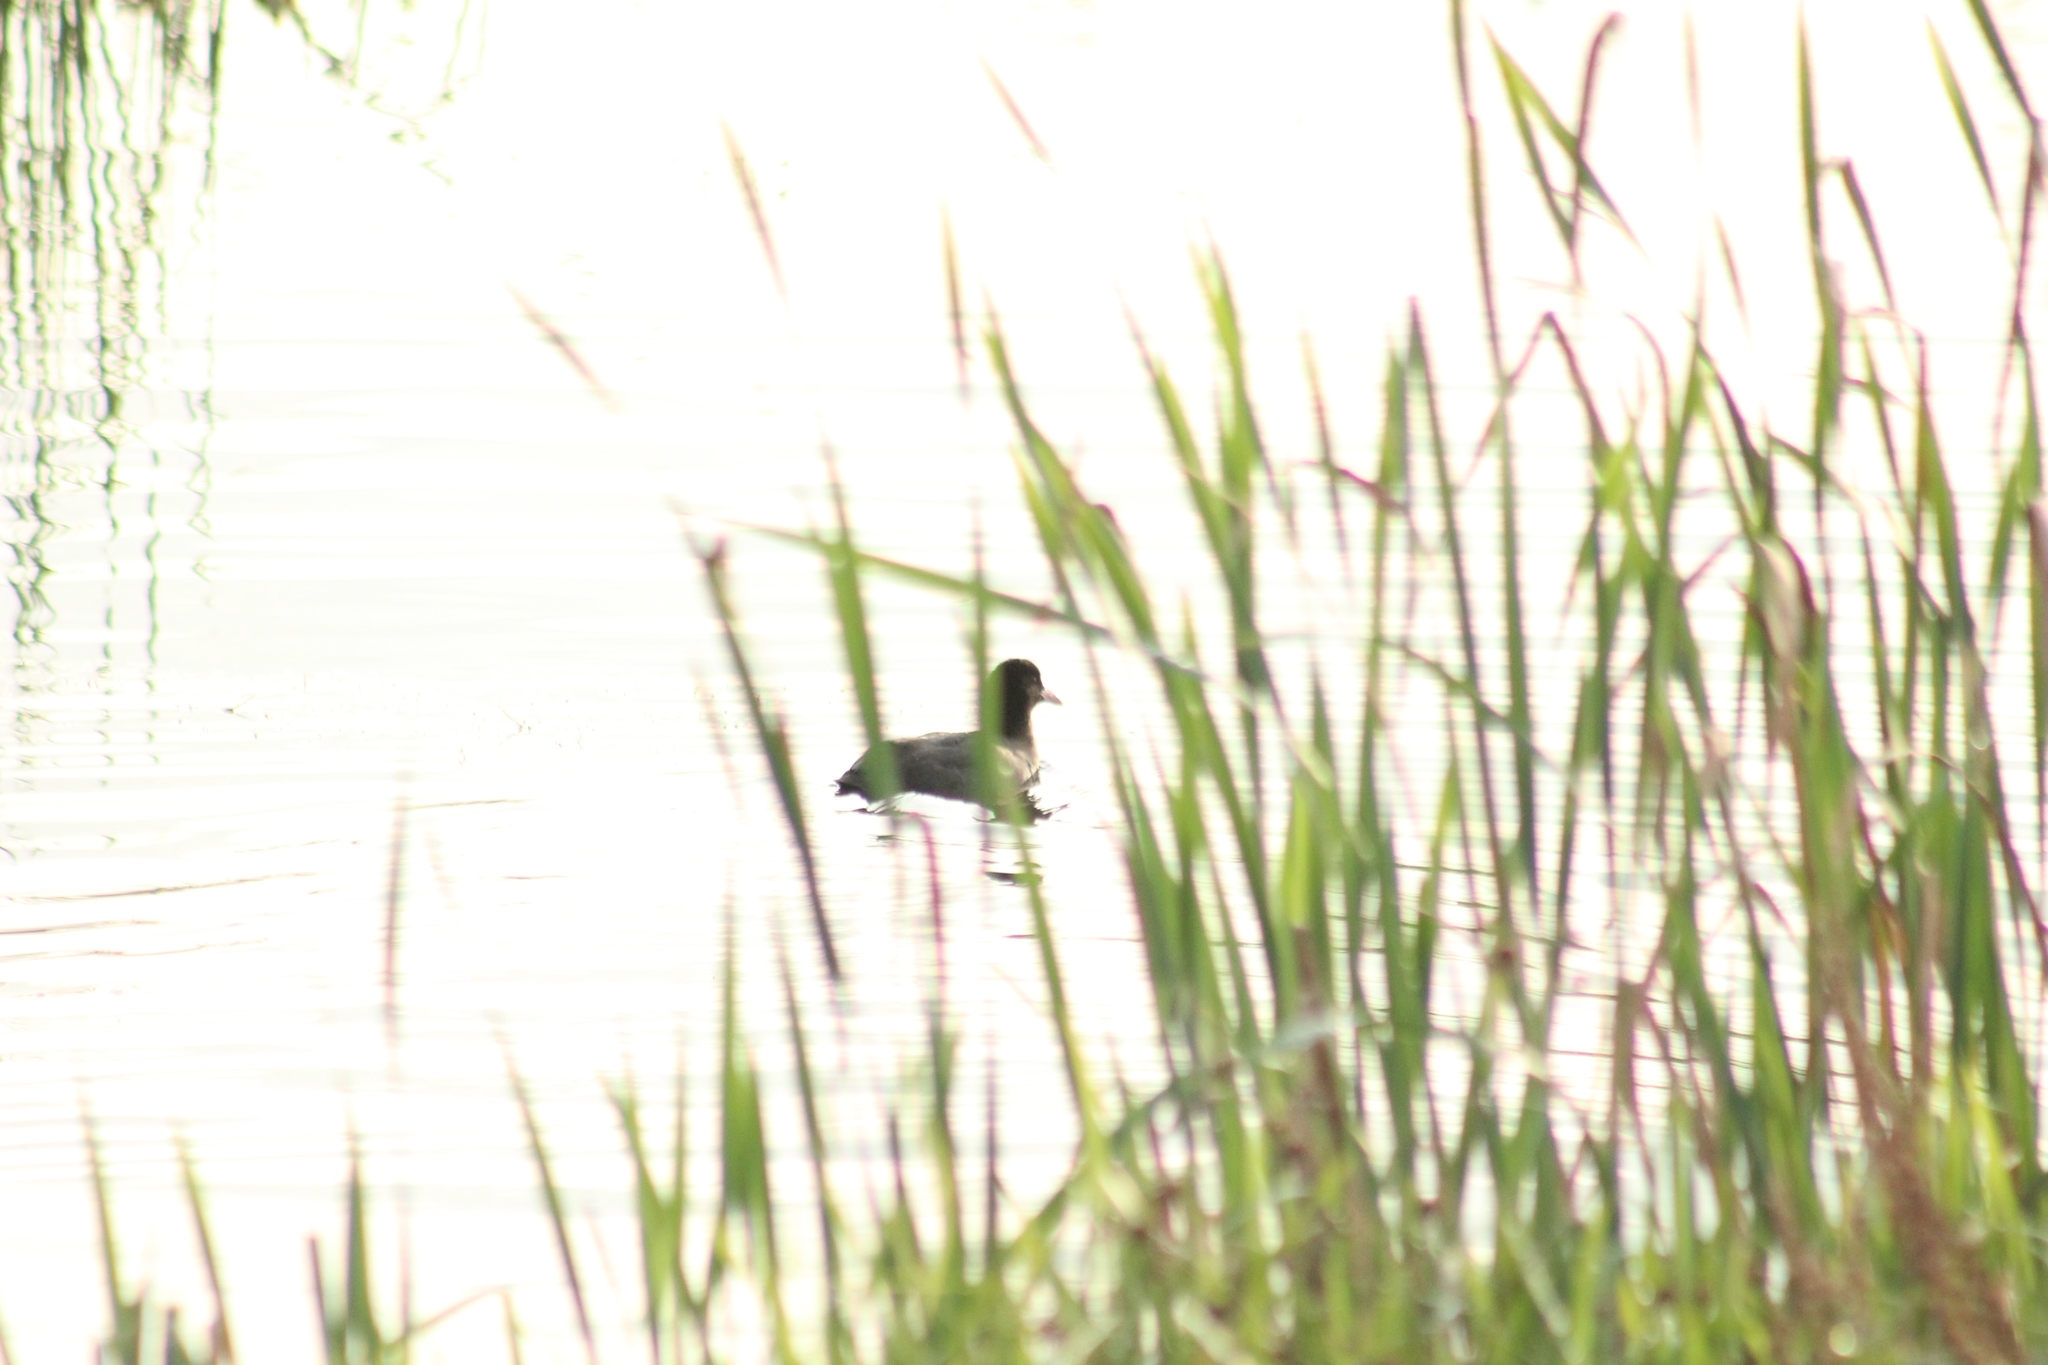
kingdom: Animalia
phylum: Chordata
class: Aves
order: Gruiformes
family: Rallidae
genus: Fulica
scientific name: Fulica atra
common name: Eurasian coot
